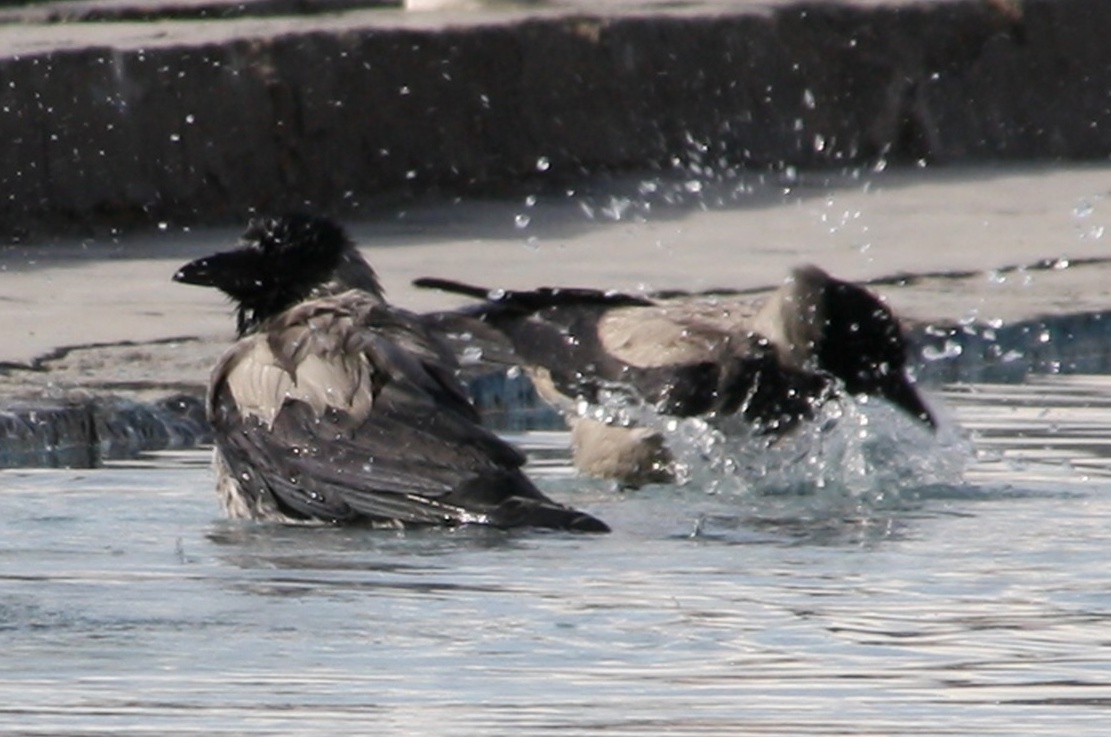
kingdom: Animalia
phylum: Chordata
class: Aves
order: Passeriformes
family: Corvidae
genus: Corvus
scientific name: Corvus cornix
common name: Hooded crow
